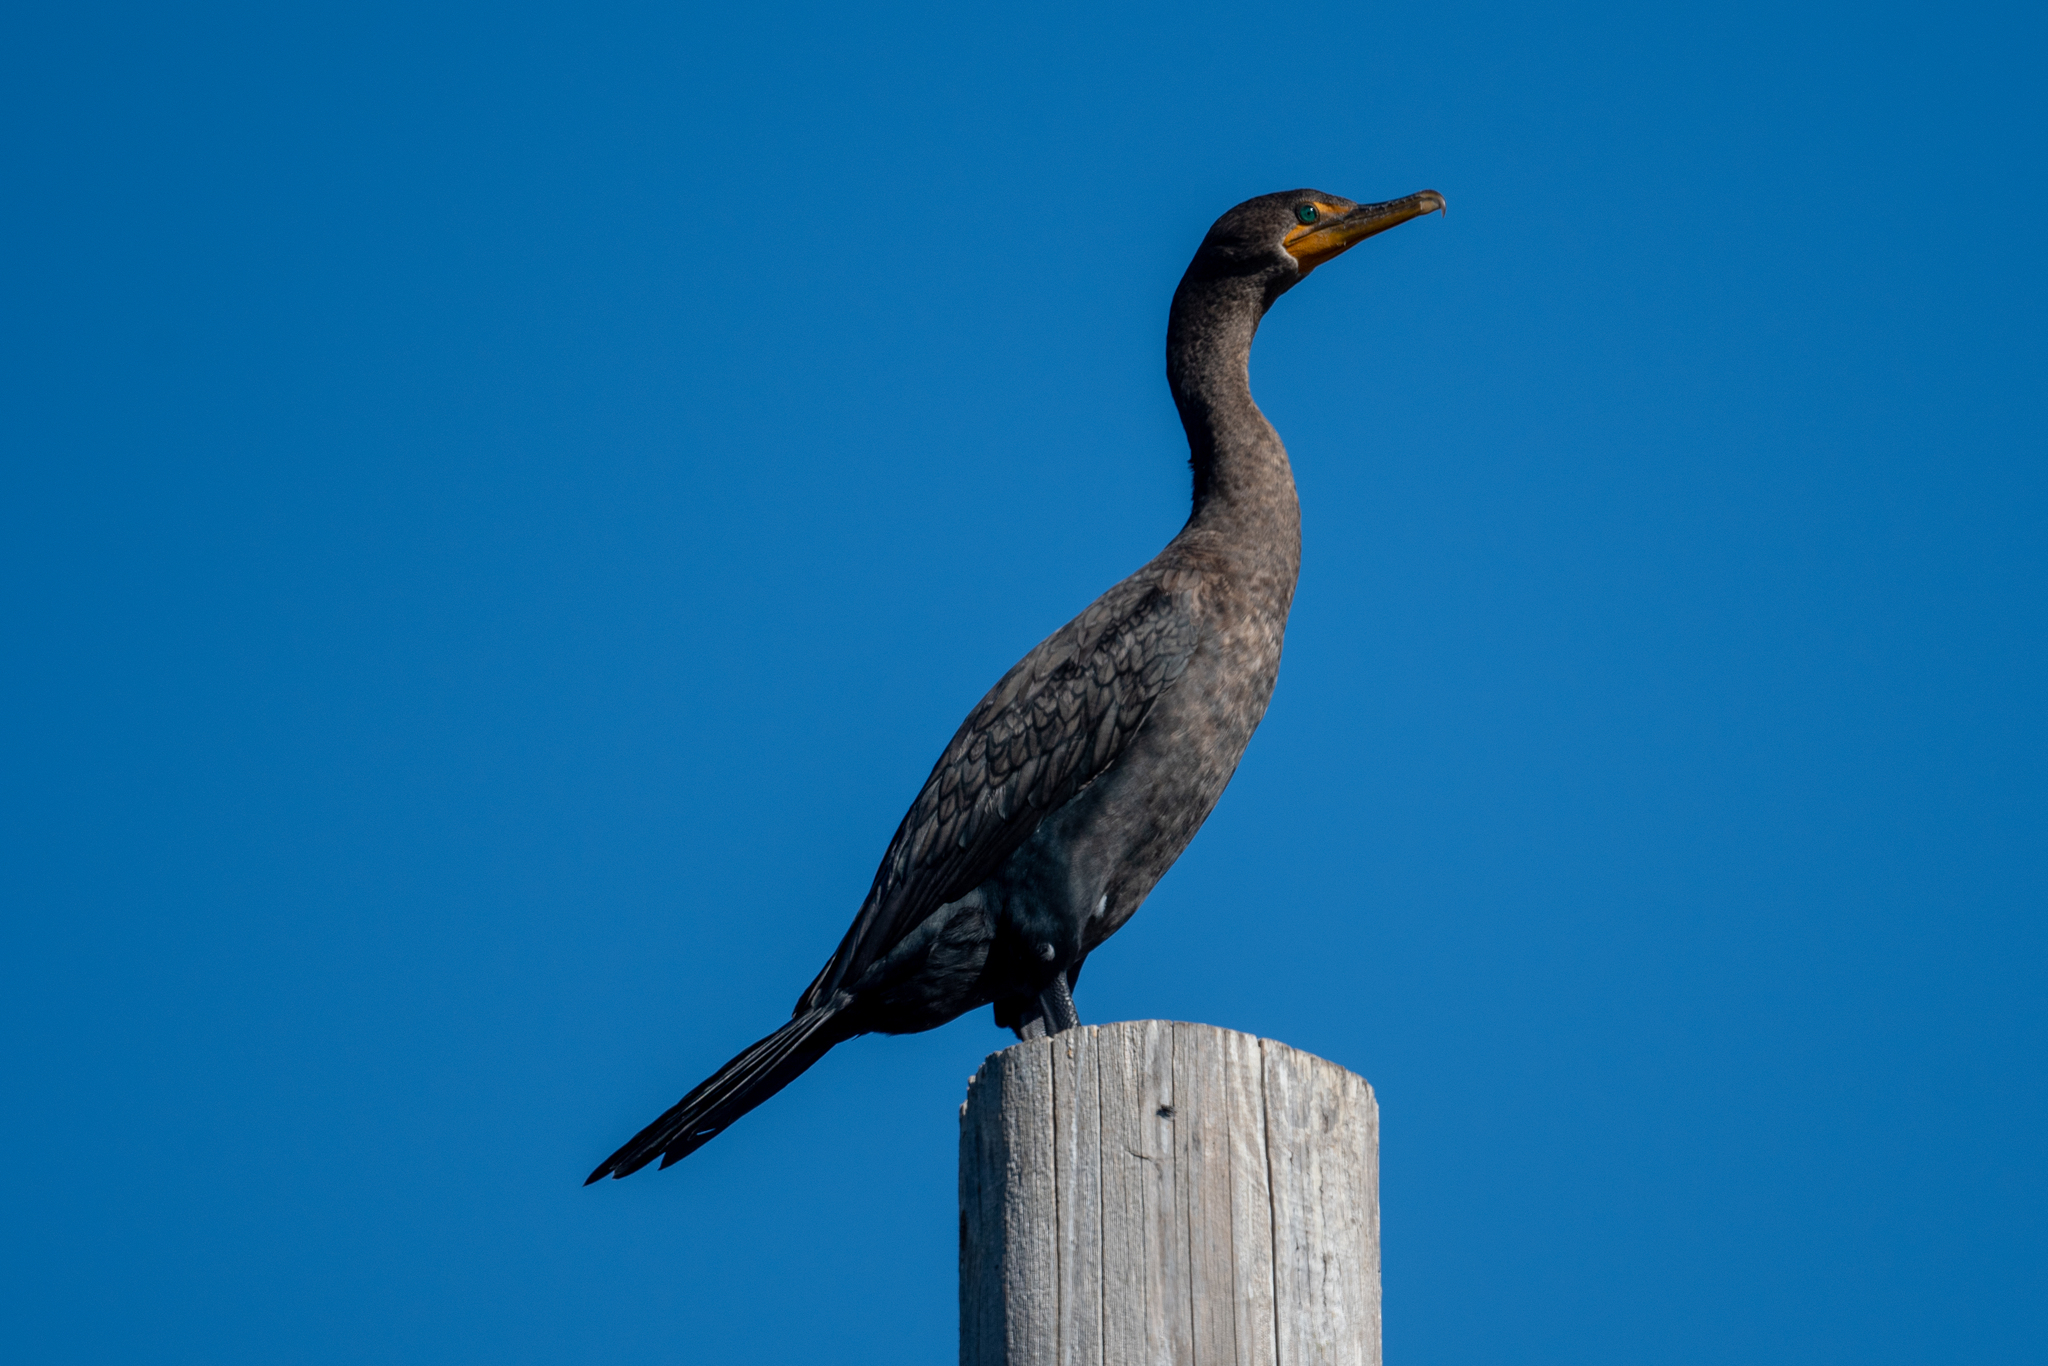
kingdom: Animalia
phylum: Chordata
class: Aves
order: Suliformes
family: Phalacrocoracidae
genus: Phalacrocorax
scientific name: Phalacrocorax auritus
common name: Double-crested cormorant
